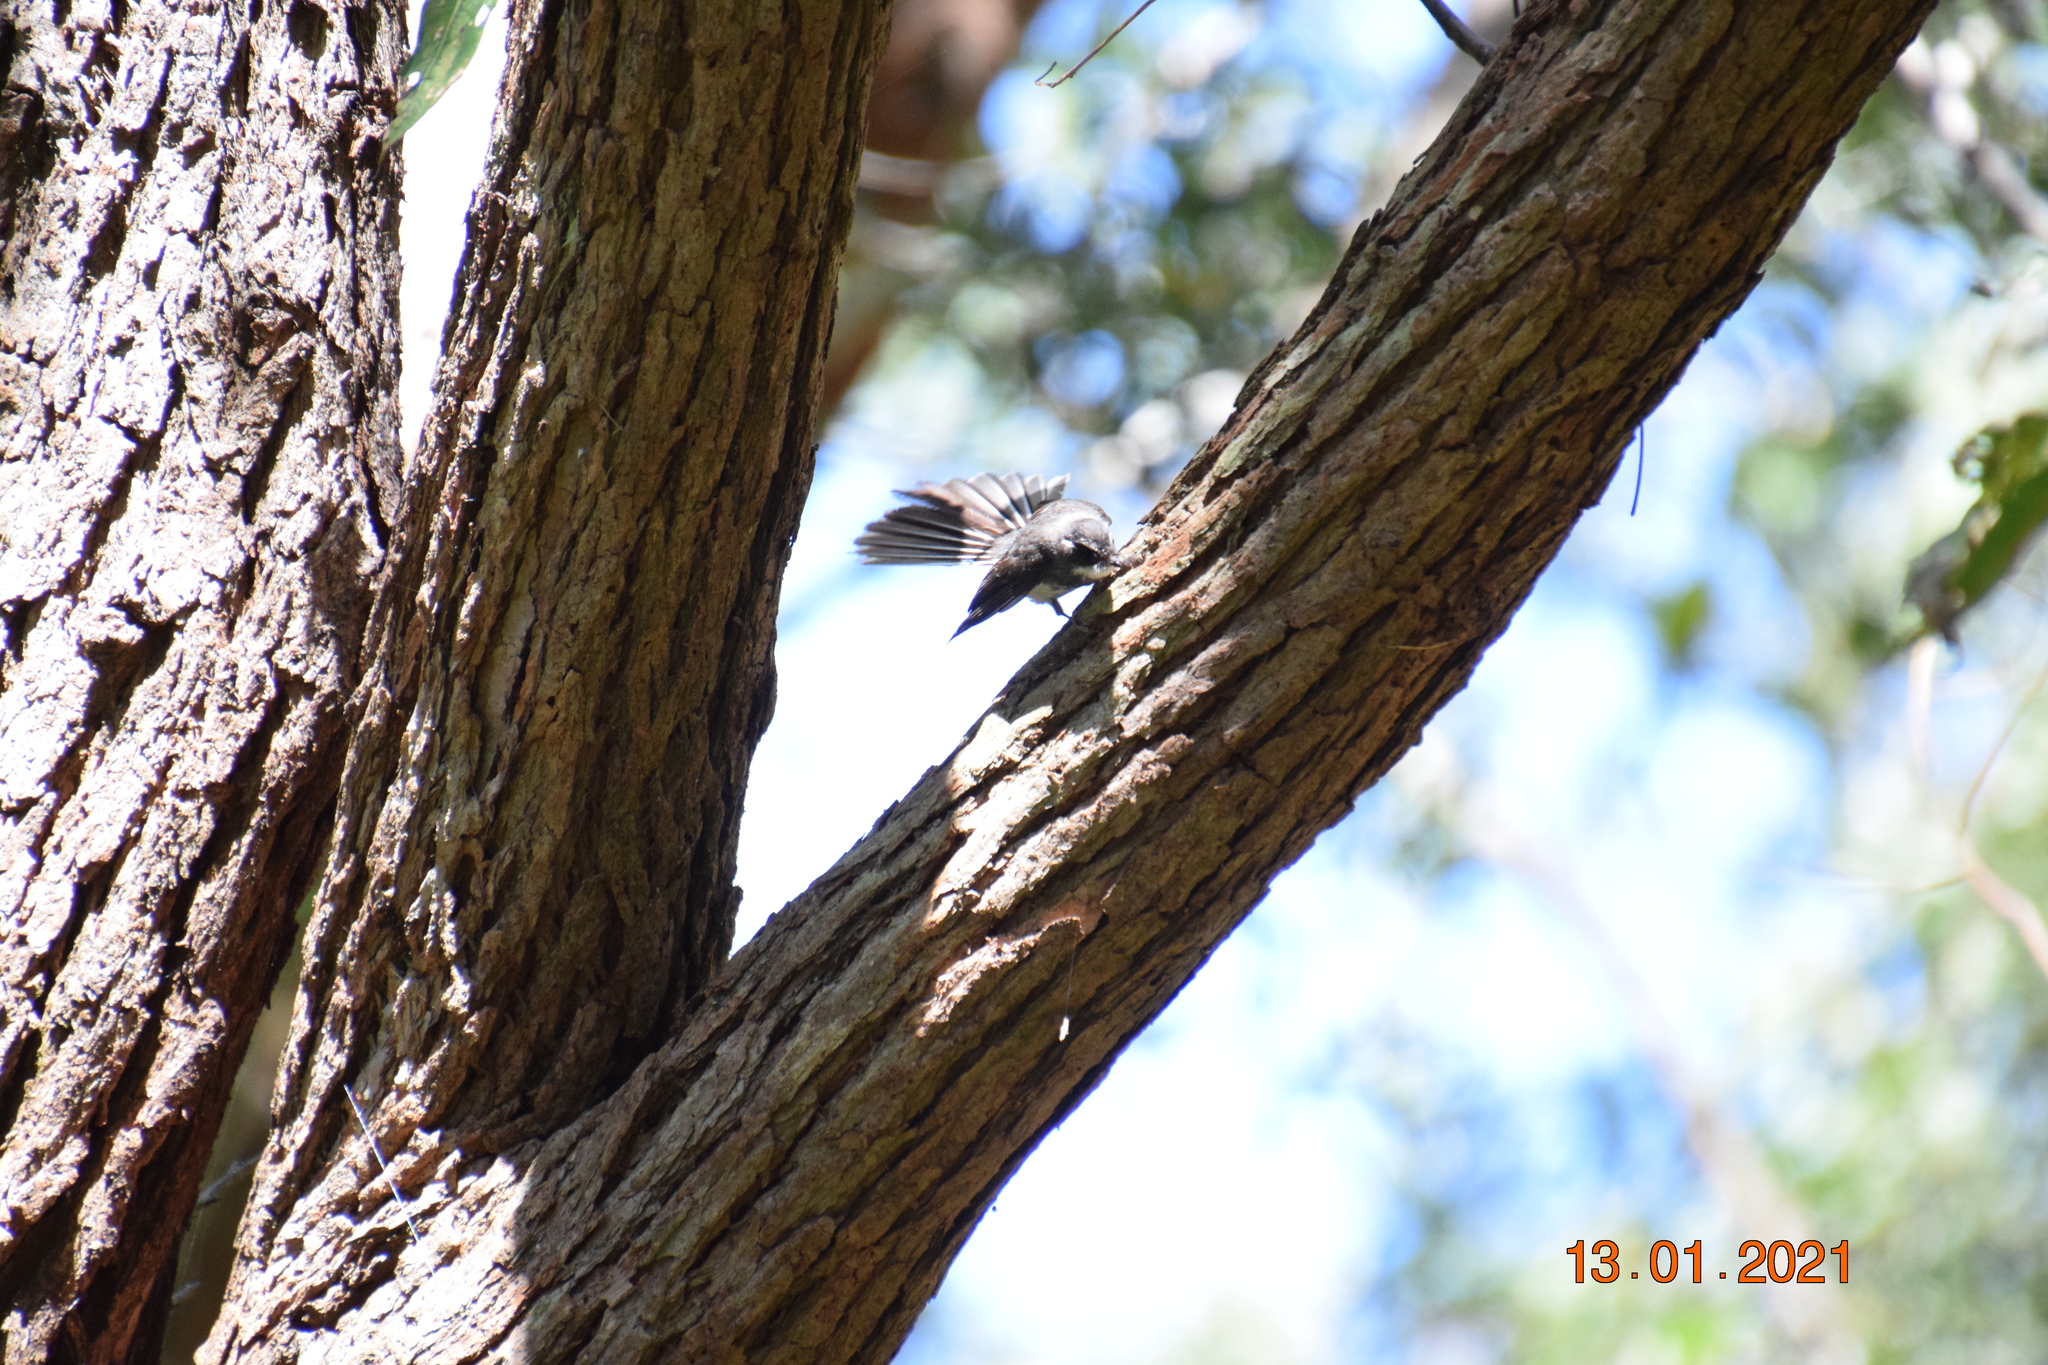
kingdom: Animalia
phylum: Chordata
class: Aves
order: Passeriformes
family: Rhipiduridae
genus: Rhipidura
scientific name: Rhipidura albiscapa
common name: Grey fantail
